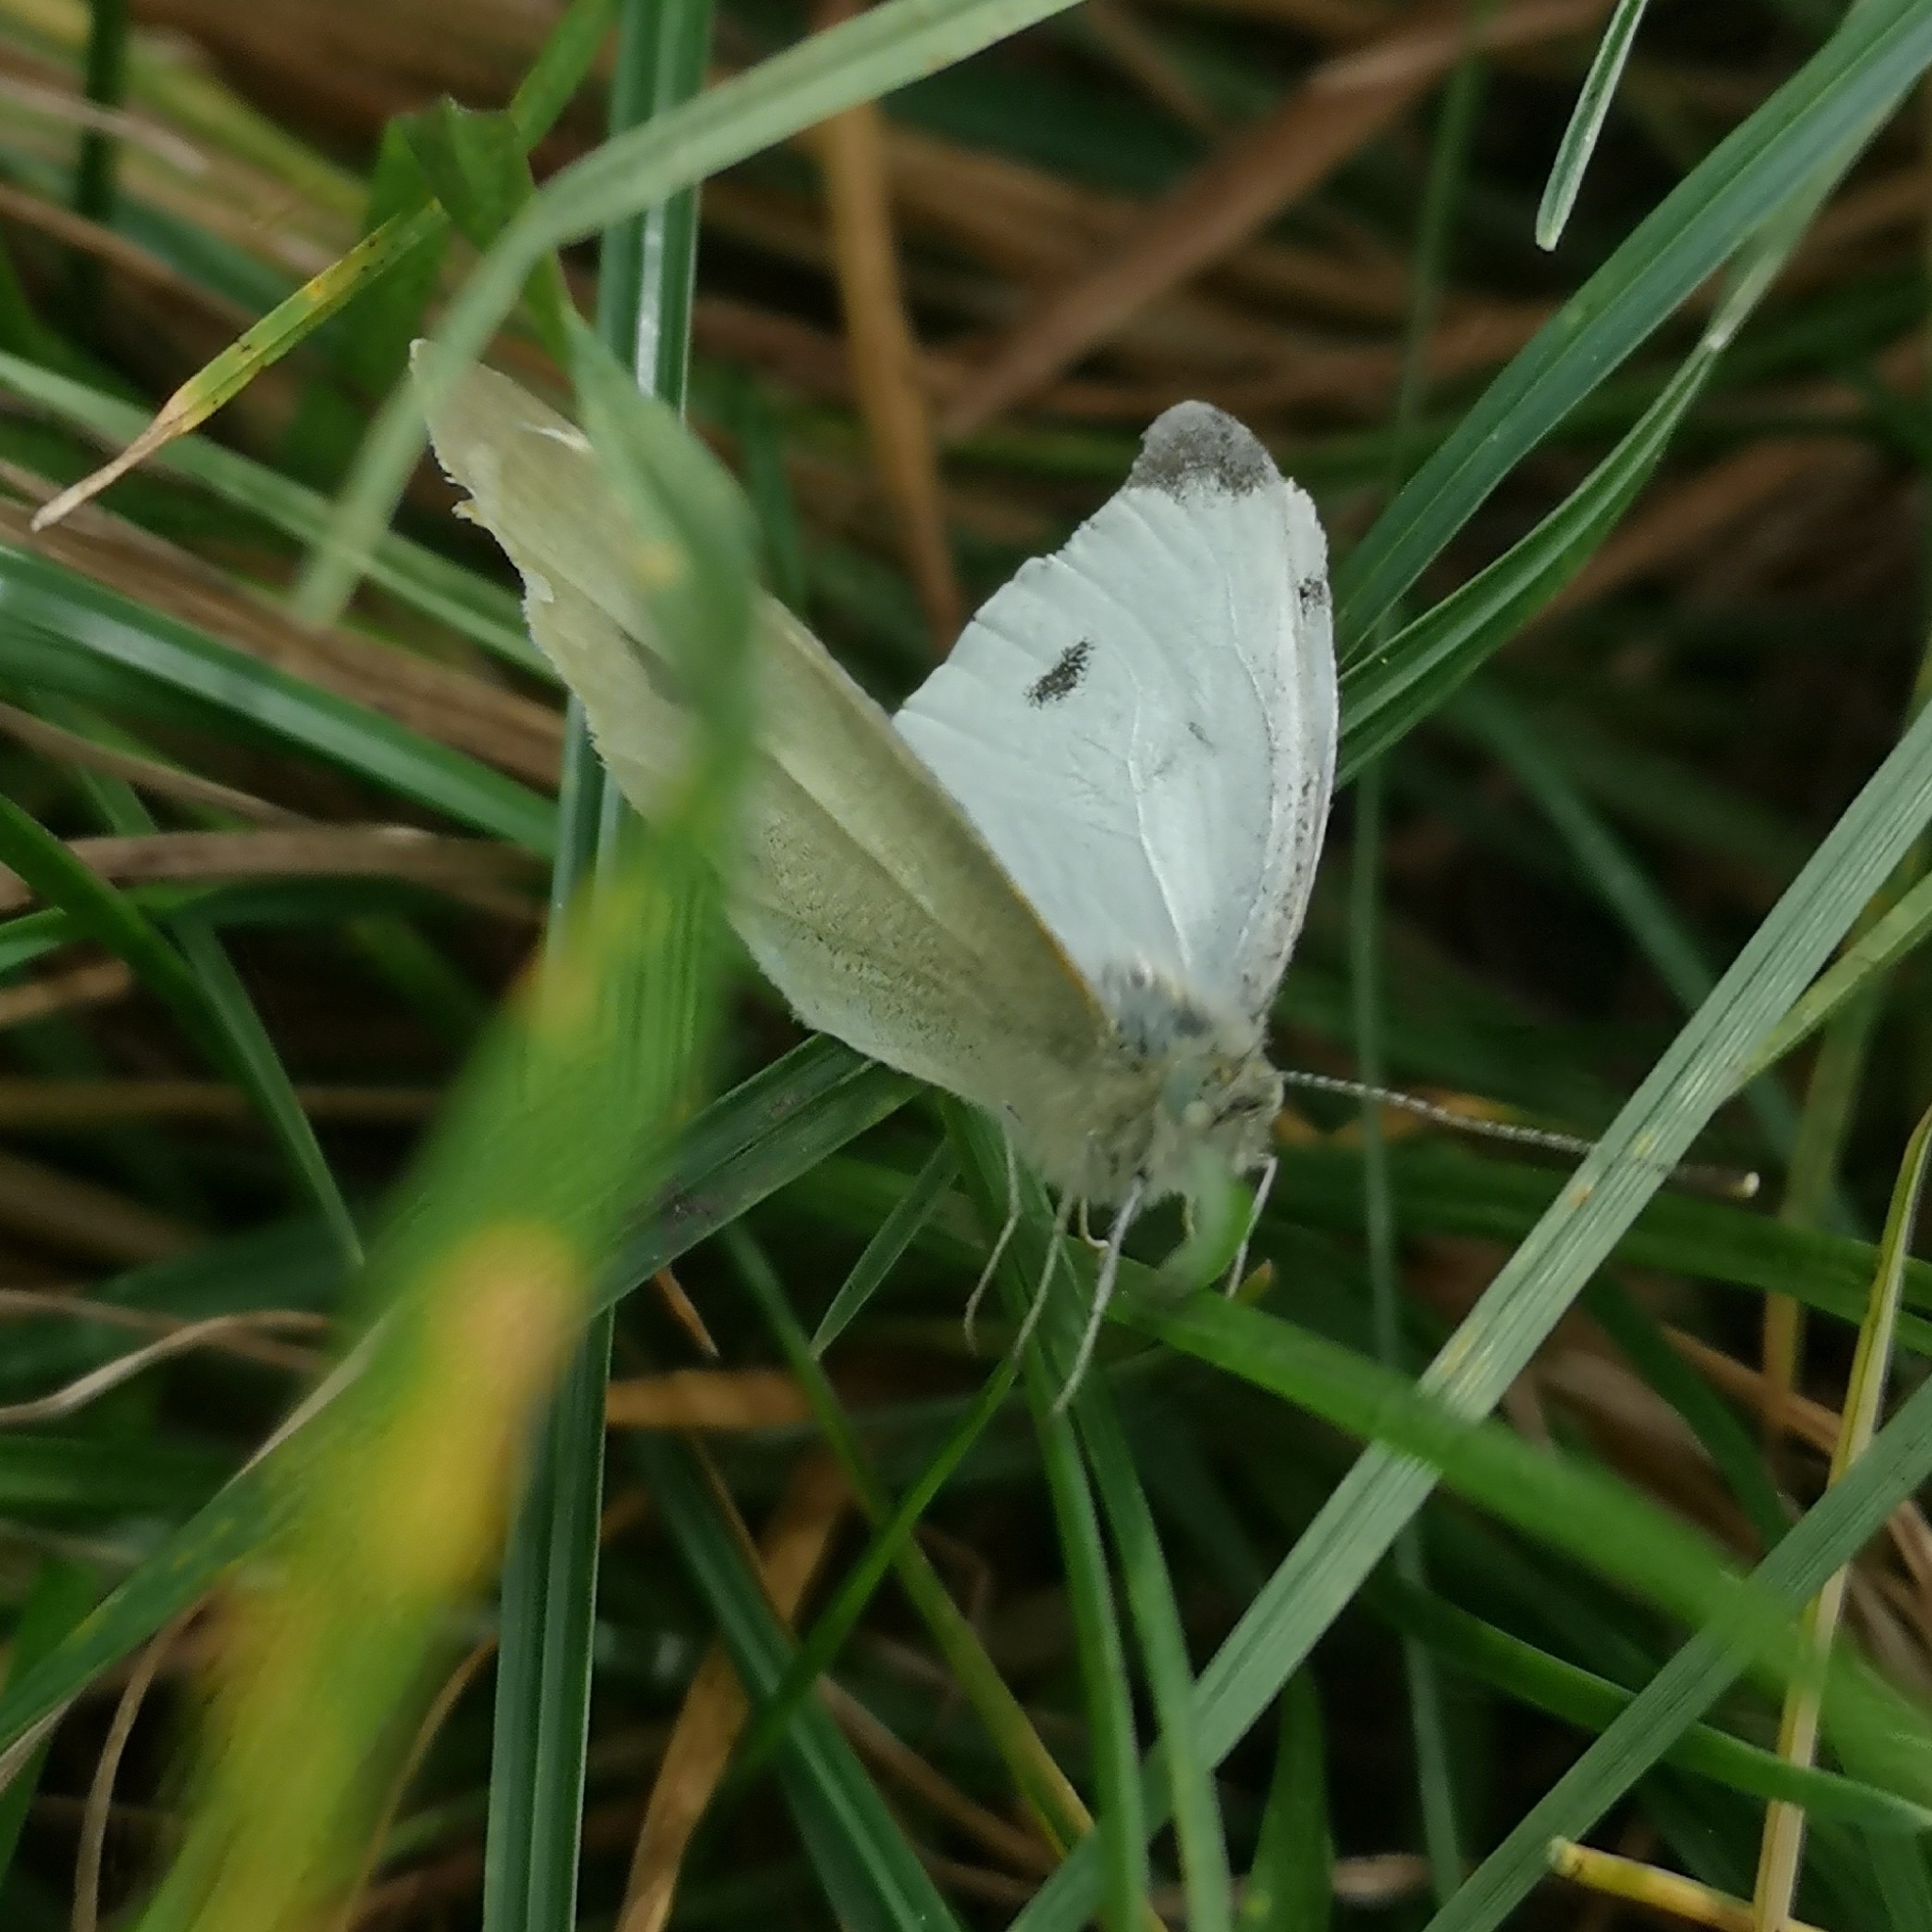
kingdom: Animalia
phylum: Arthropoda
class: Insecta
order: Lepidoptera
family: Pieridae
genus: Pieris
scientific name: Pieris rapae
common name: Small white
